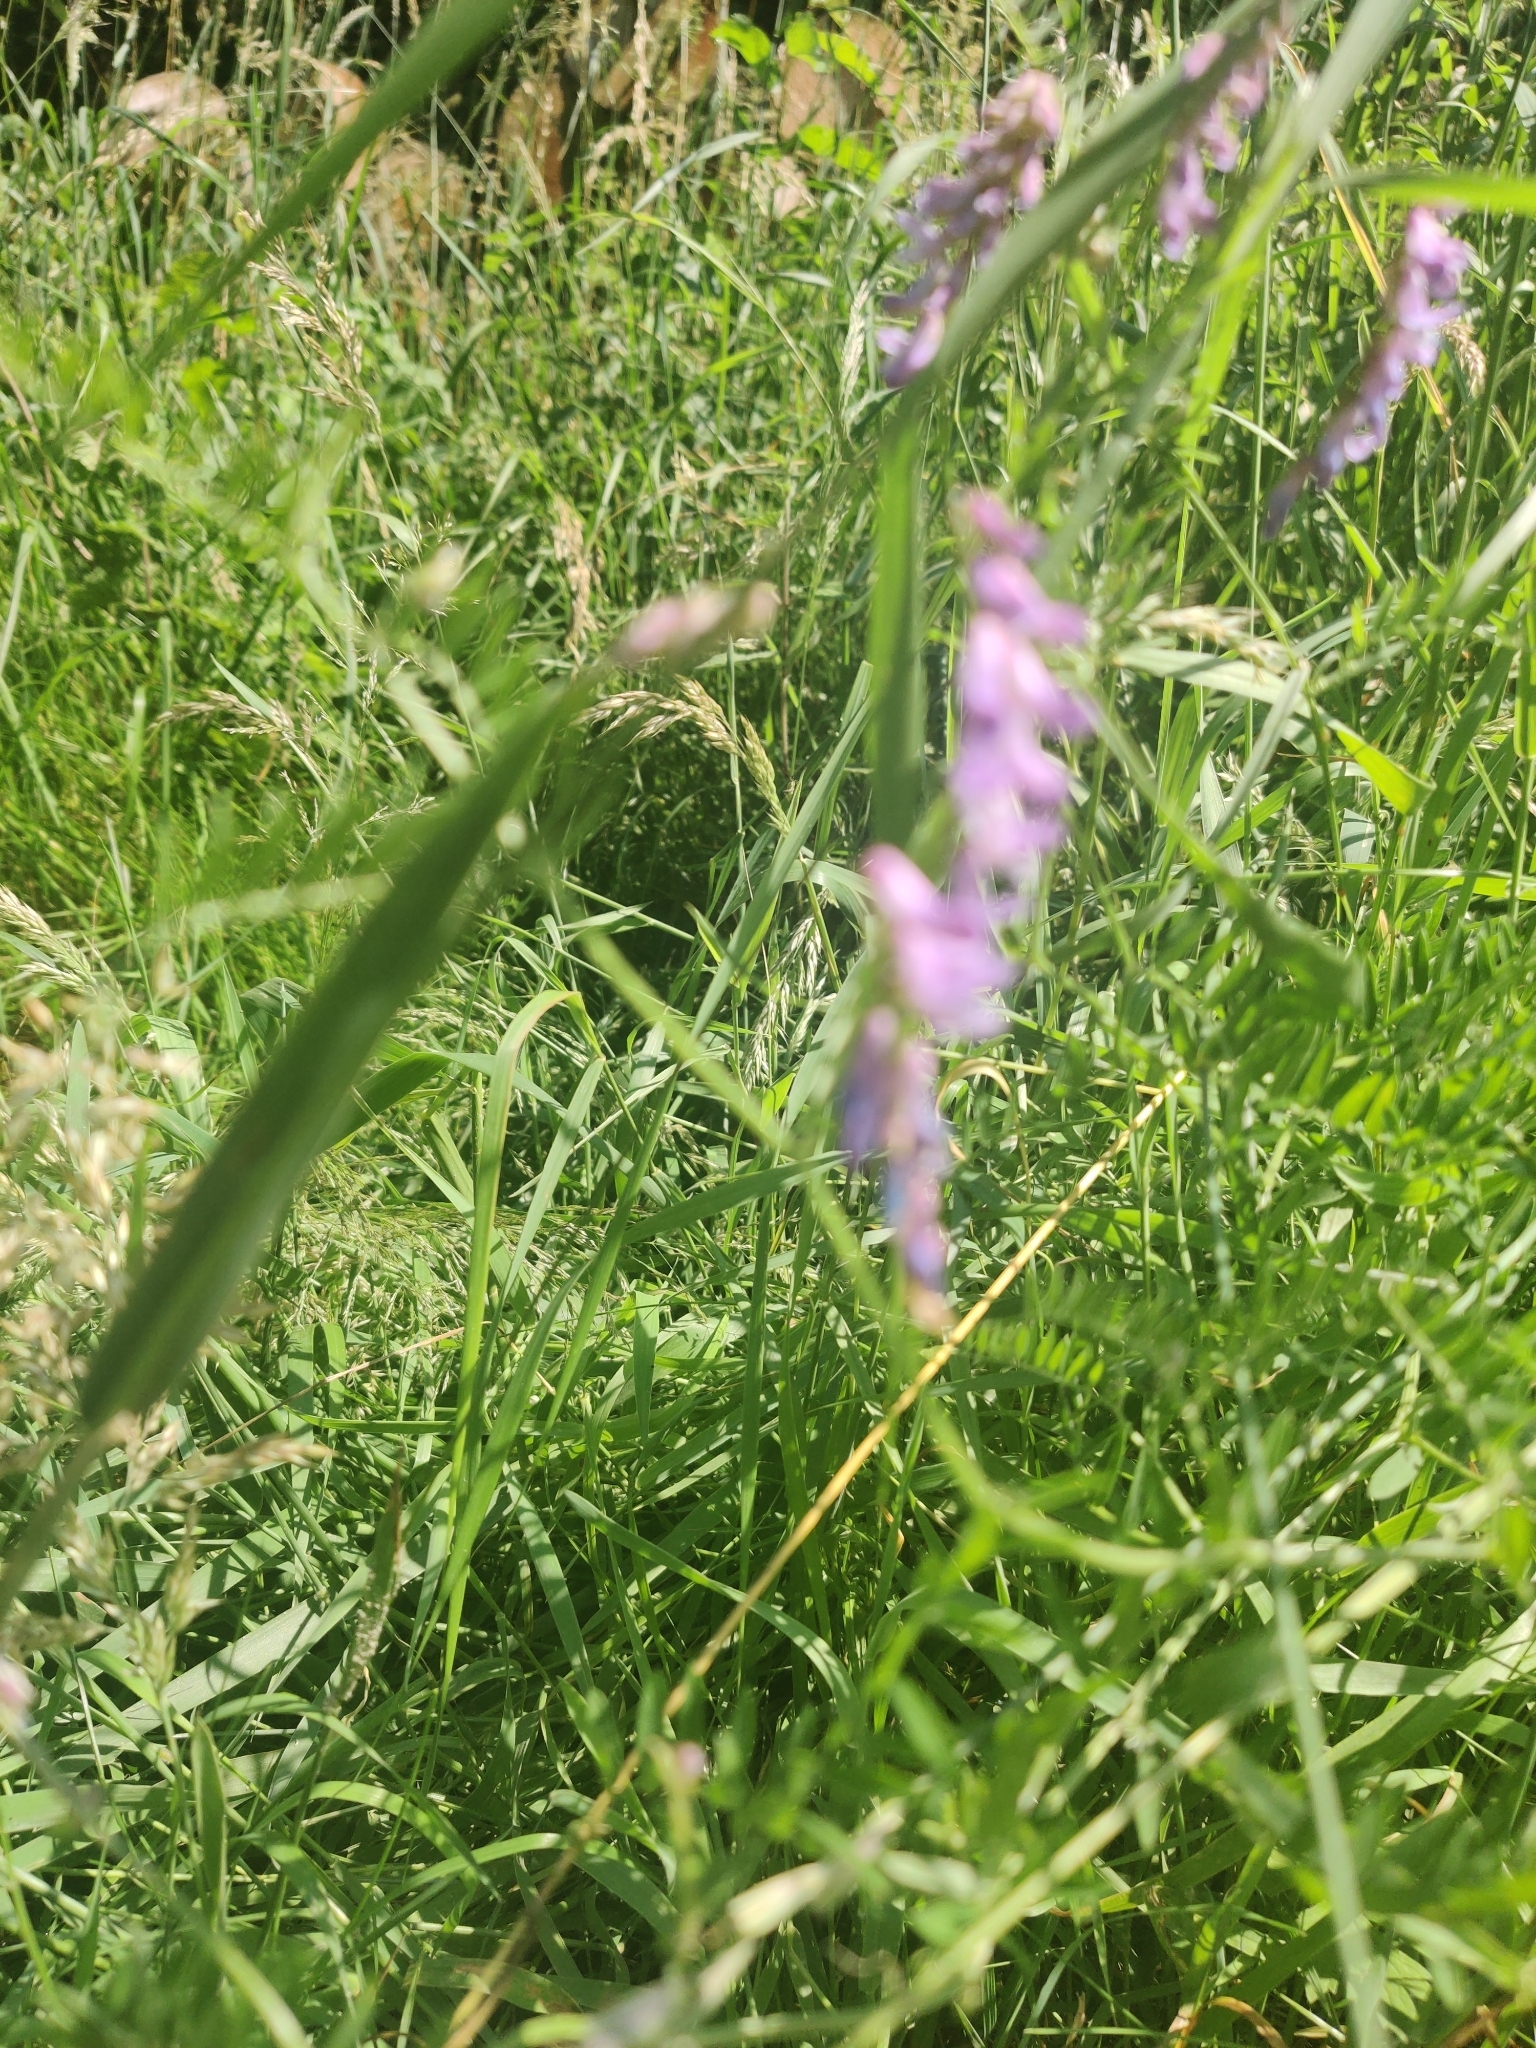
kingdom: Plantae
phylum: Tracheophyta
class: Magnoliopsida
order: Fabales
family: Fabaceae
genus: Vicia
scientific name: Vicia cracca
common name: Bird vetch
